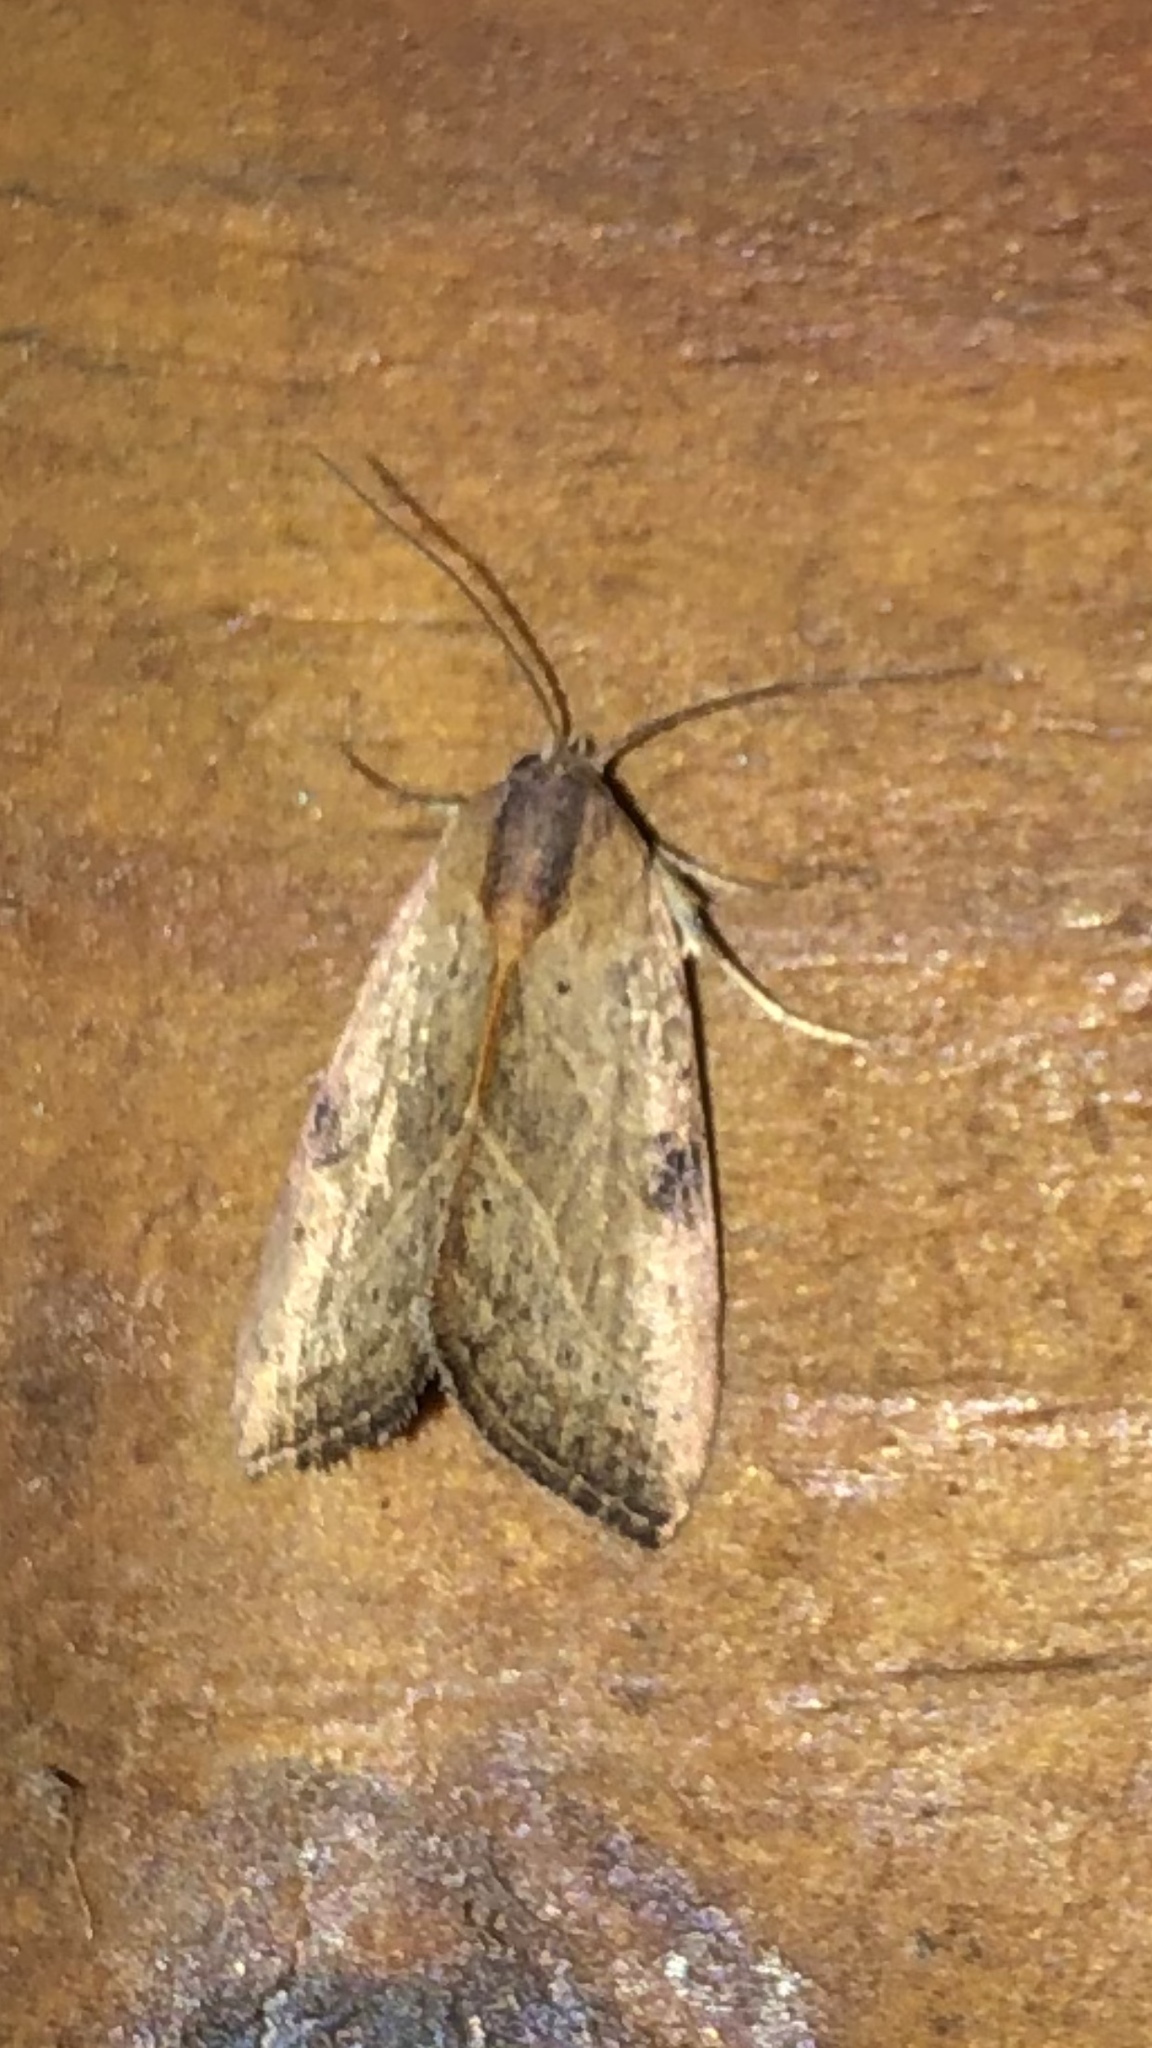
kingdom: Animalia
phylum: Arthropoda
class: Insecta
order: Lepidoptera
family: Noctuidae
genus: Galgula
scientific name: Galgula partita
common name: Wedgeling
